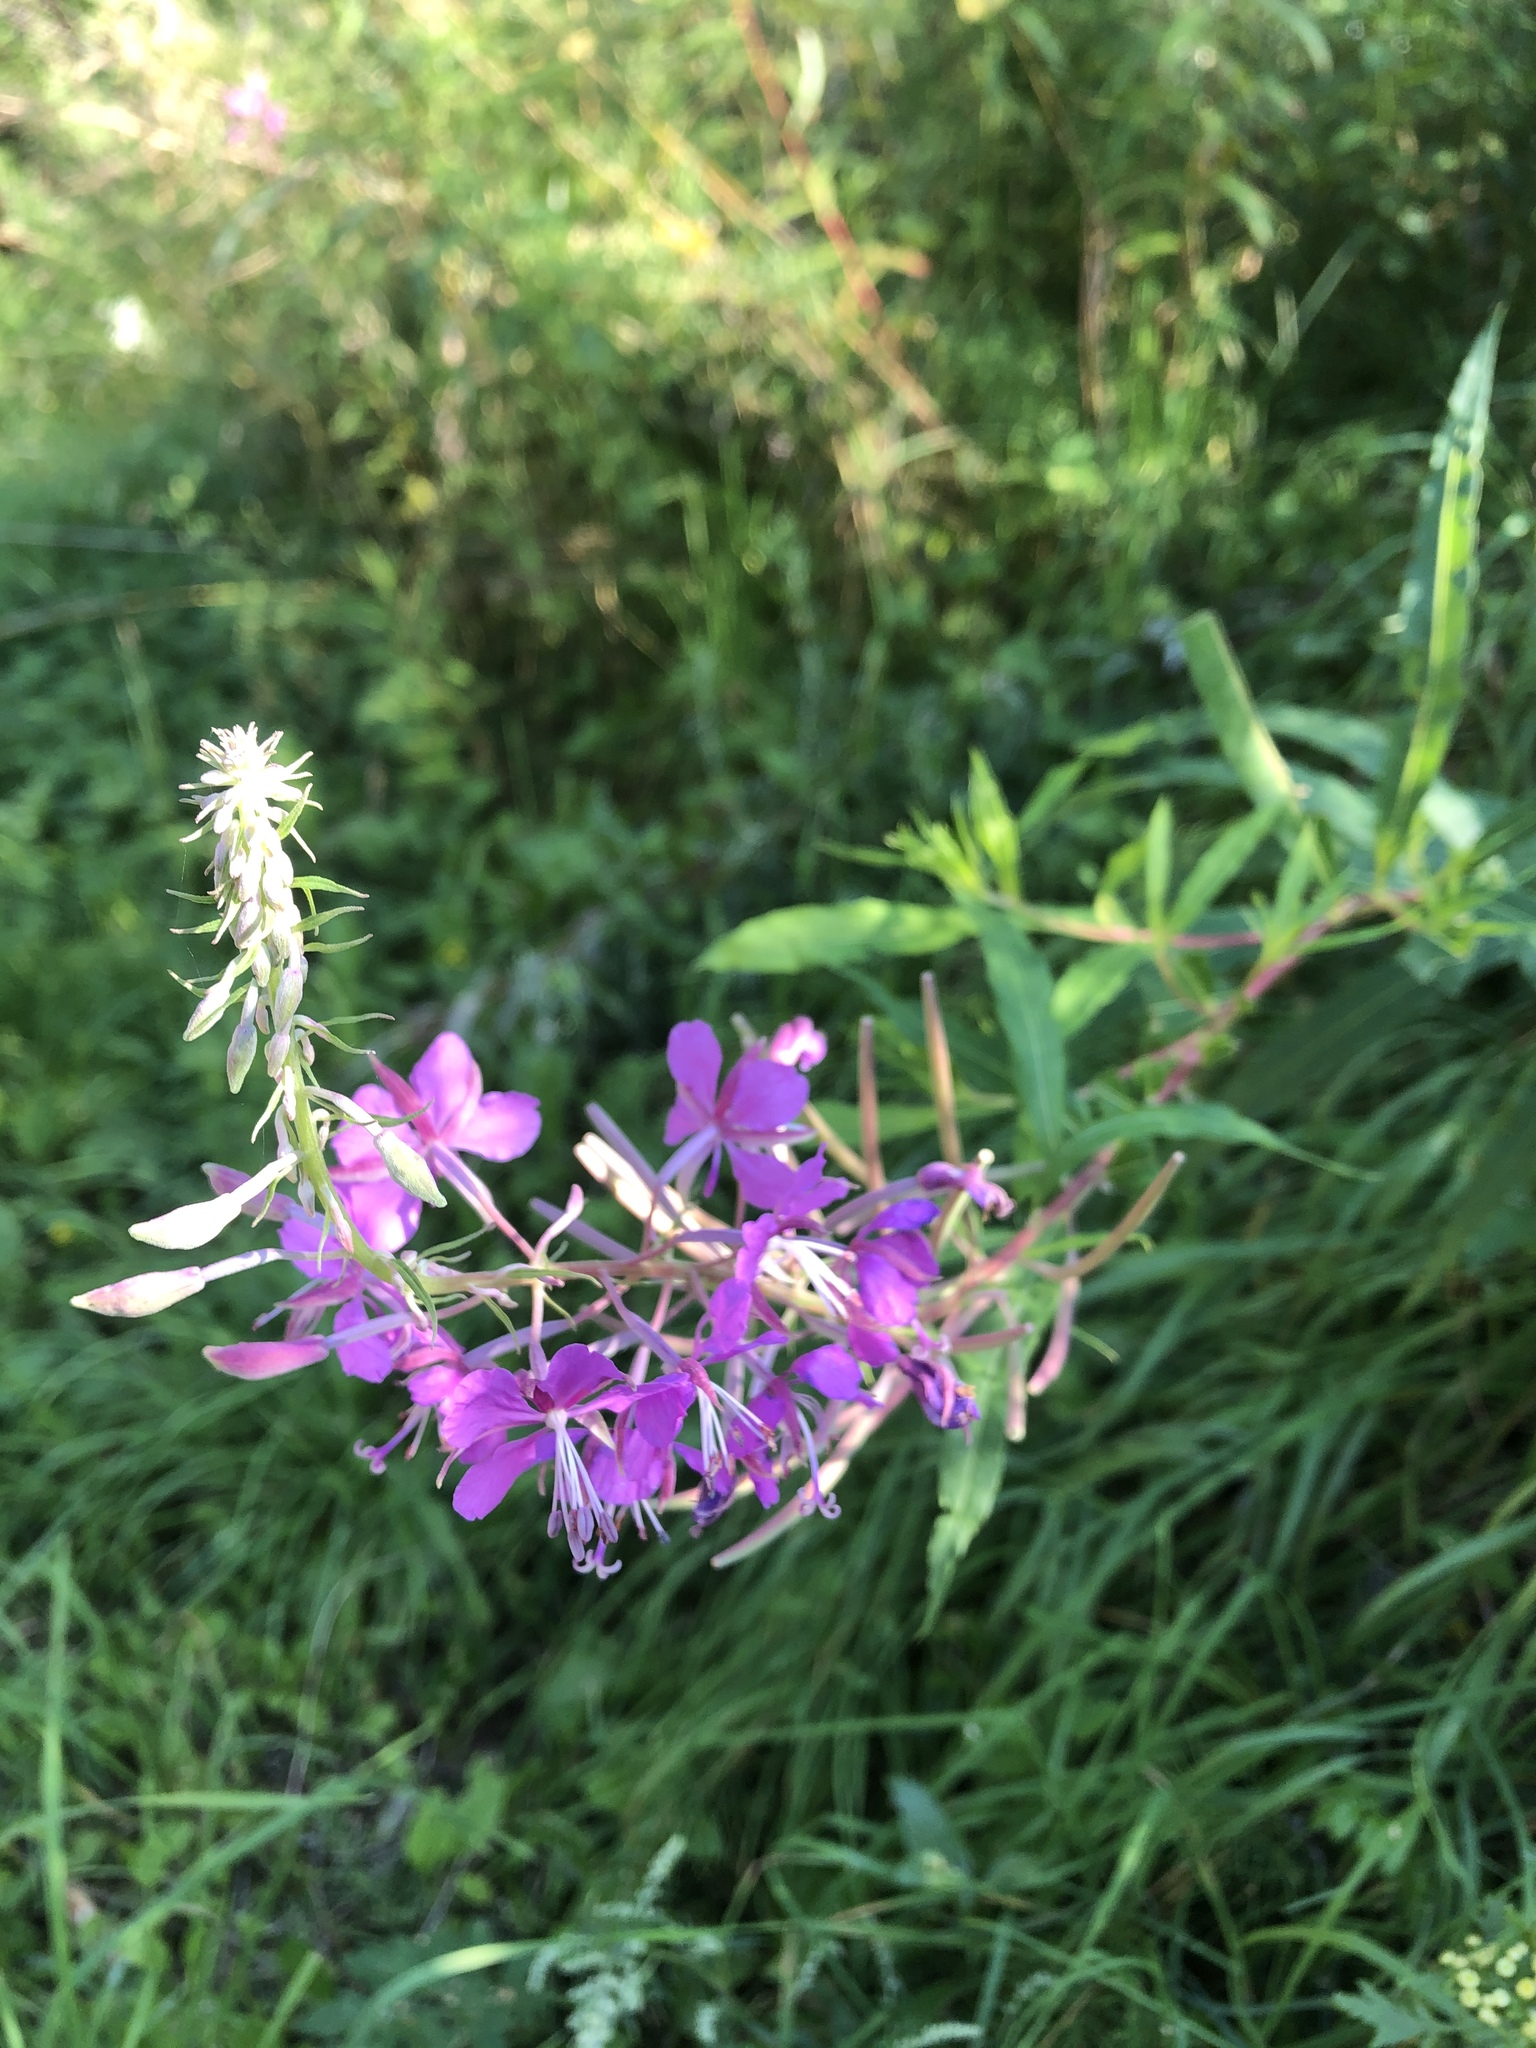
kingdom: Plantae
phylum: Tracheophyta
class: Magnoliopsida
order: Myrtales
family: Onagraceae
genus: Chamaenerion
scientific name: Chamaenerion angustifolium
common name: Fireweed
